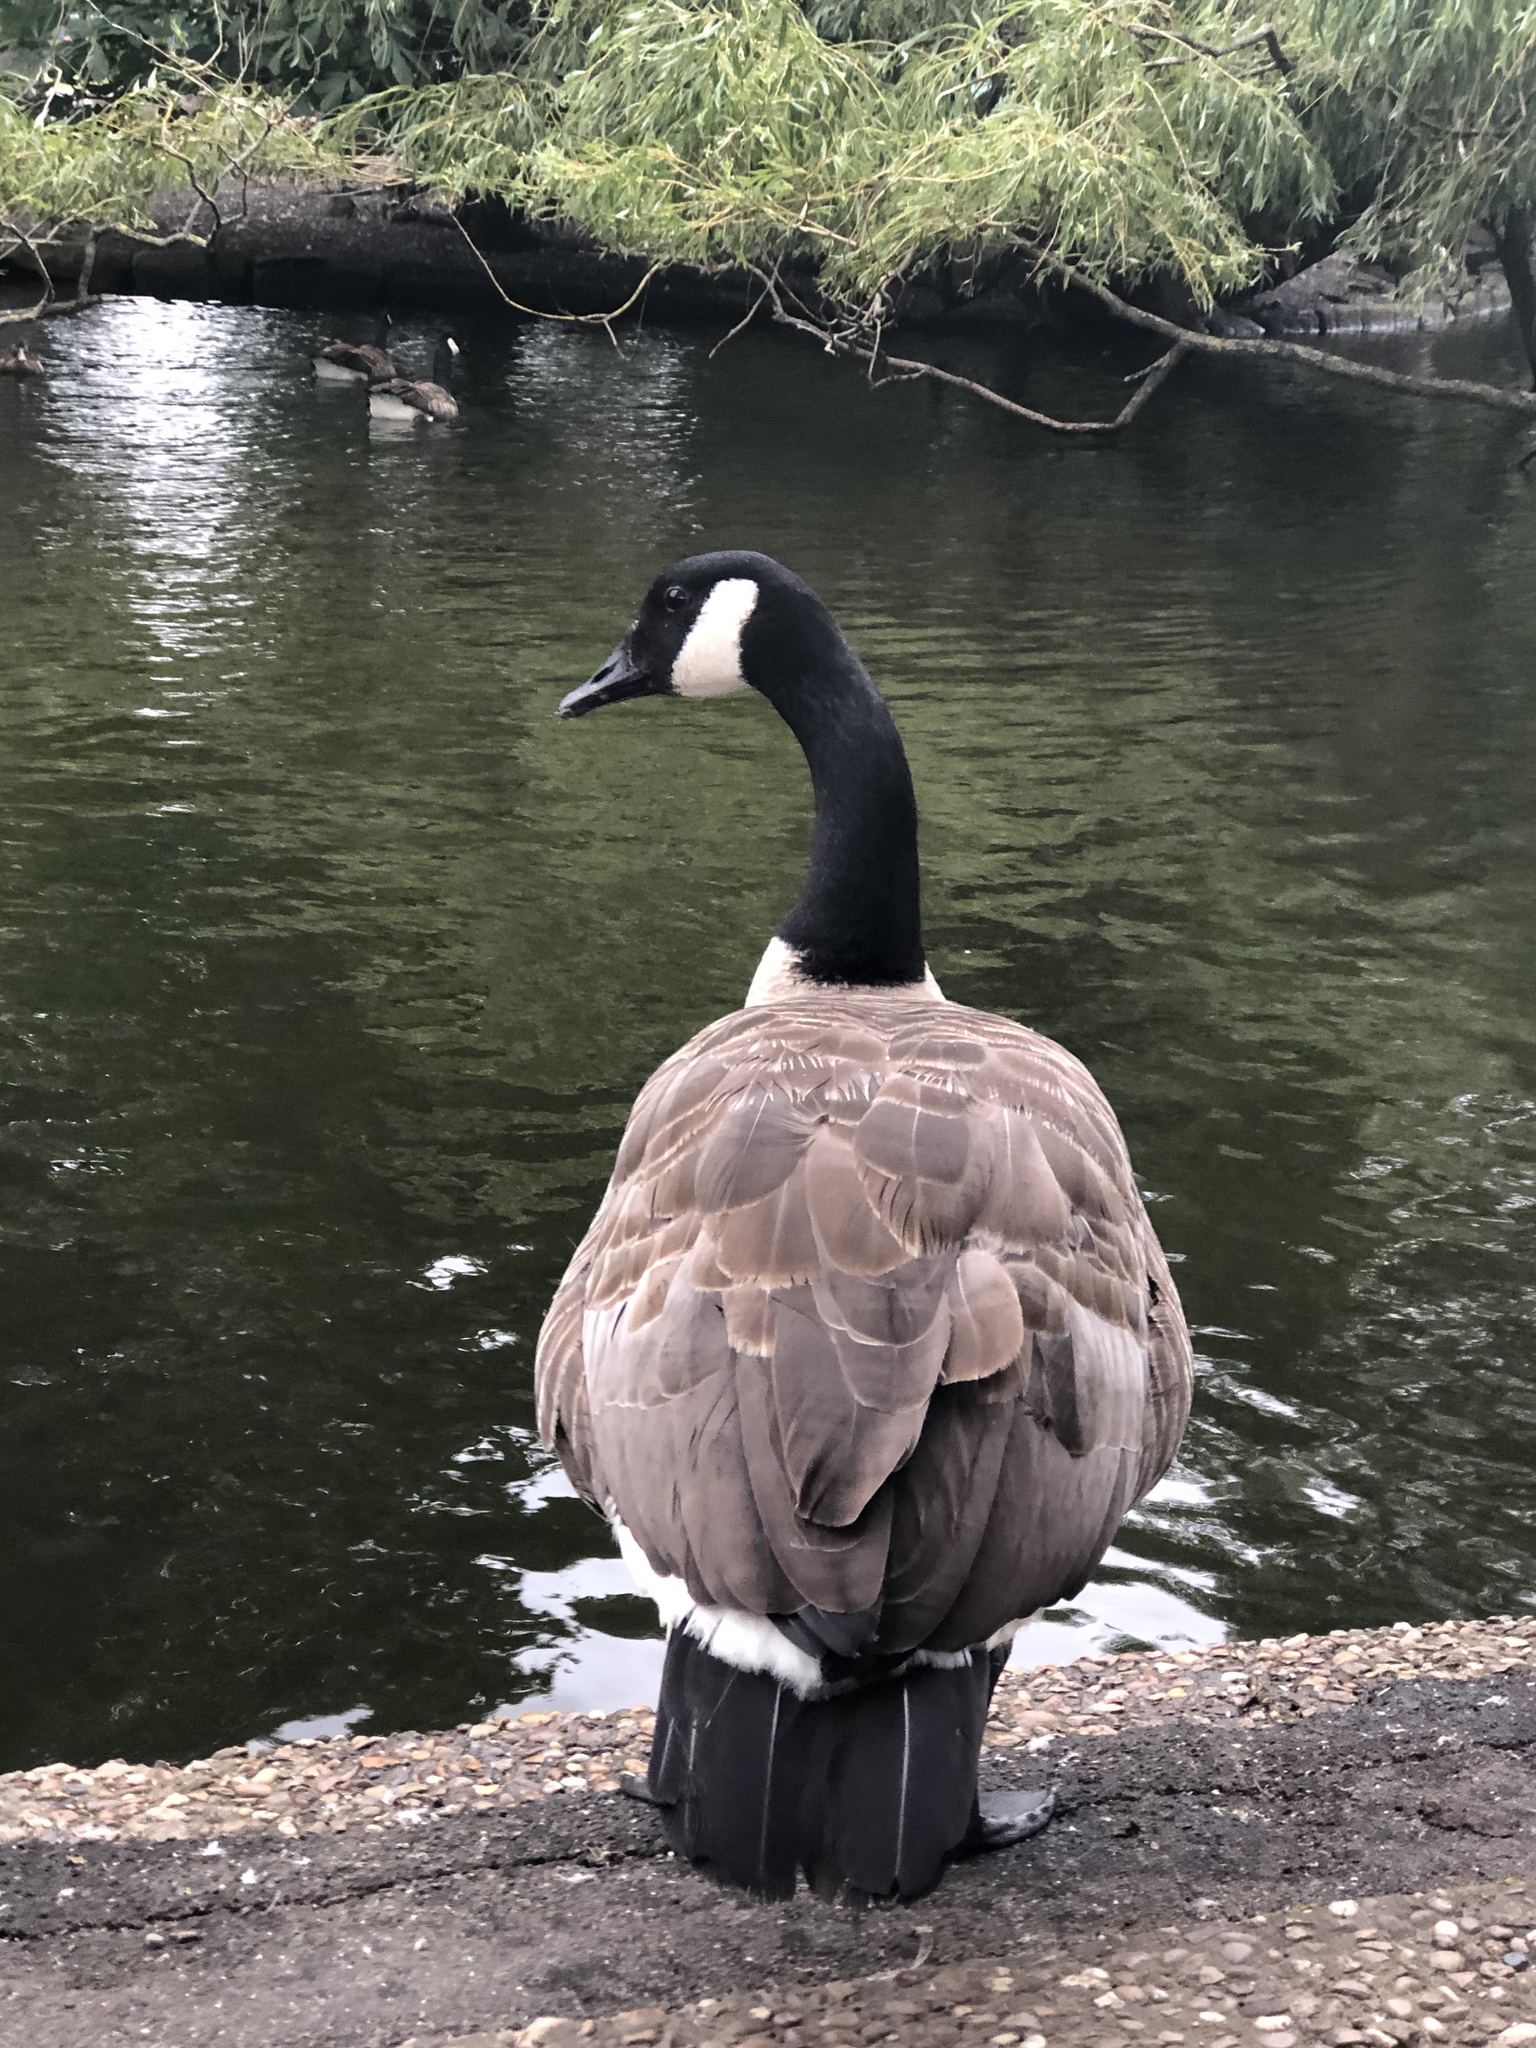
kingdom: Animalia
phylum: Chordata
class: Aves
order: Anseriformes
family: Anatidae
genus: Branta
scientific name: Branta canadensis
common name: Canada goose
